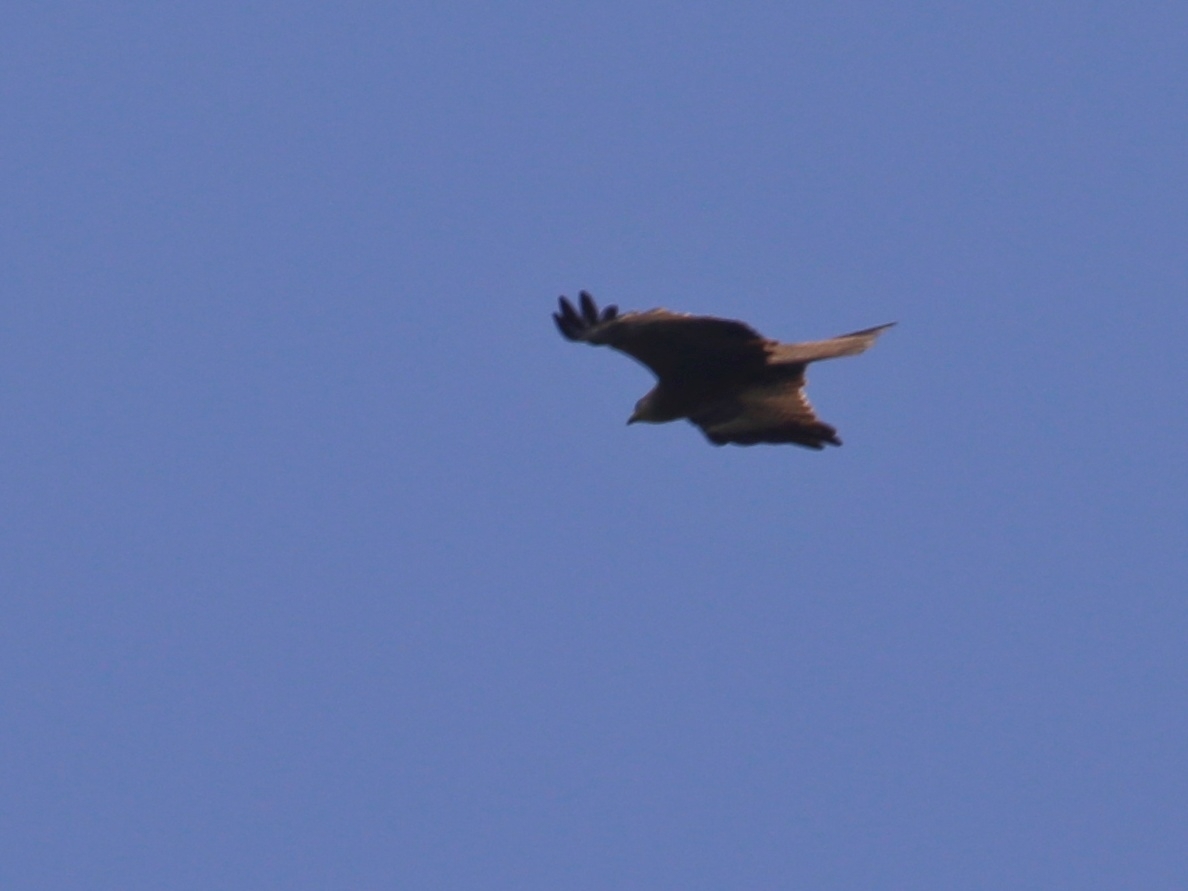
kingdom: Animalia
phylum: Chordata
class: Aves
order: Accipitriformes
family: Accipitridae
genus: Milvus
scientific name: Milvus migrans
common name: Black kite
